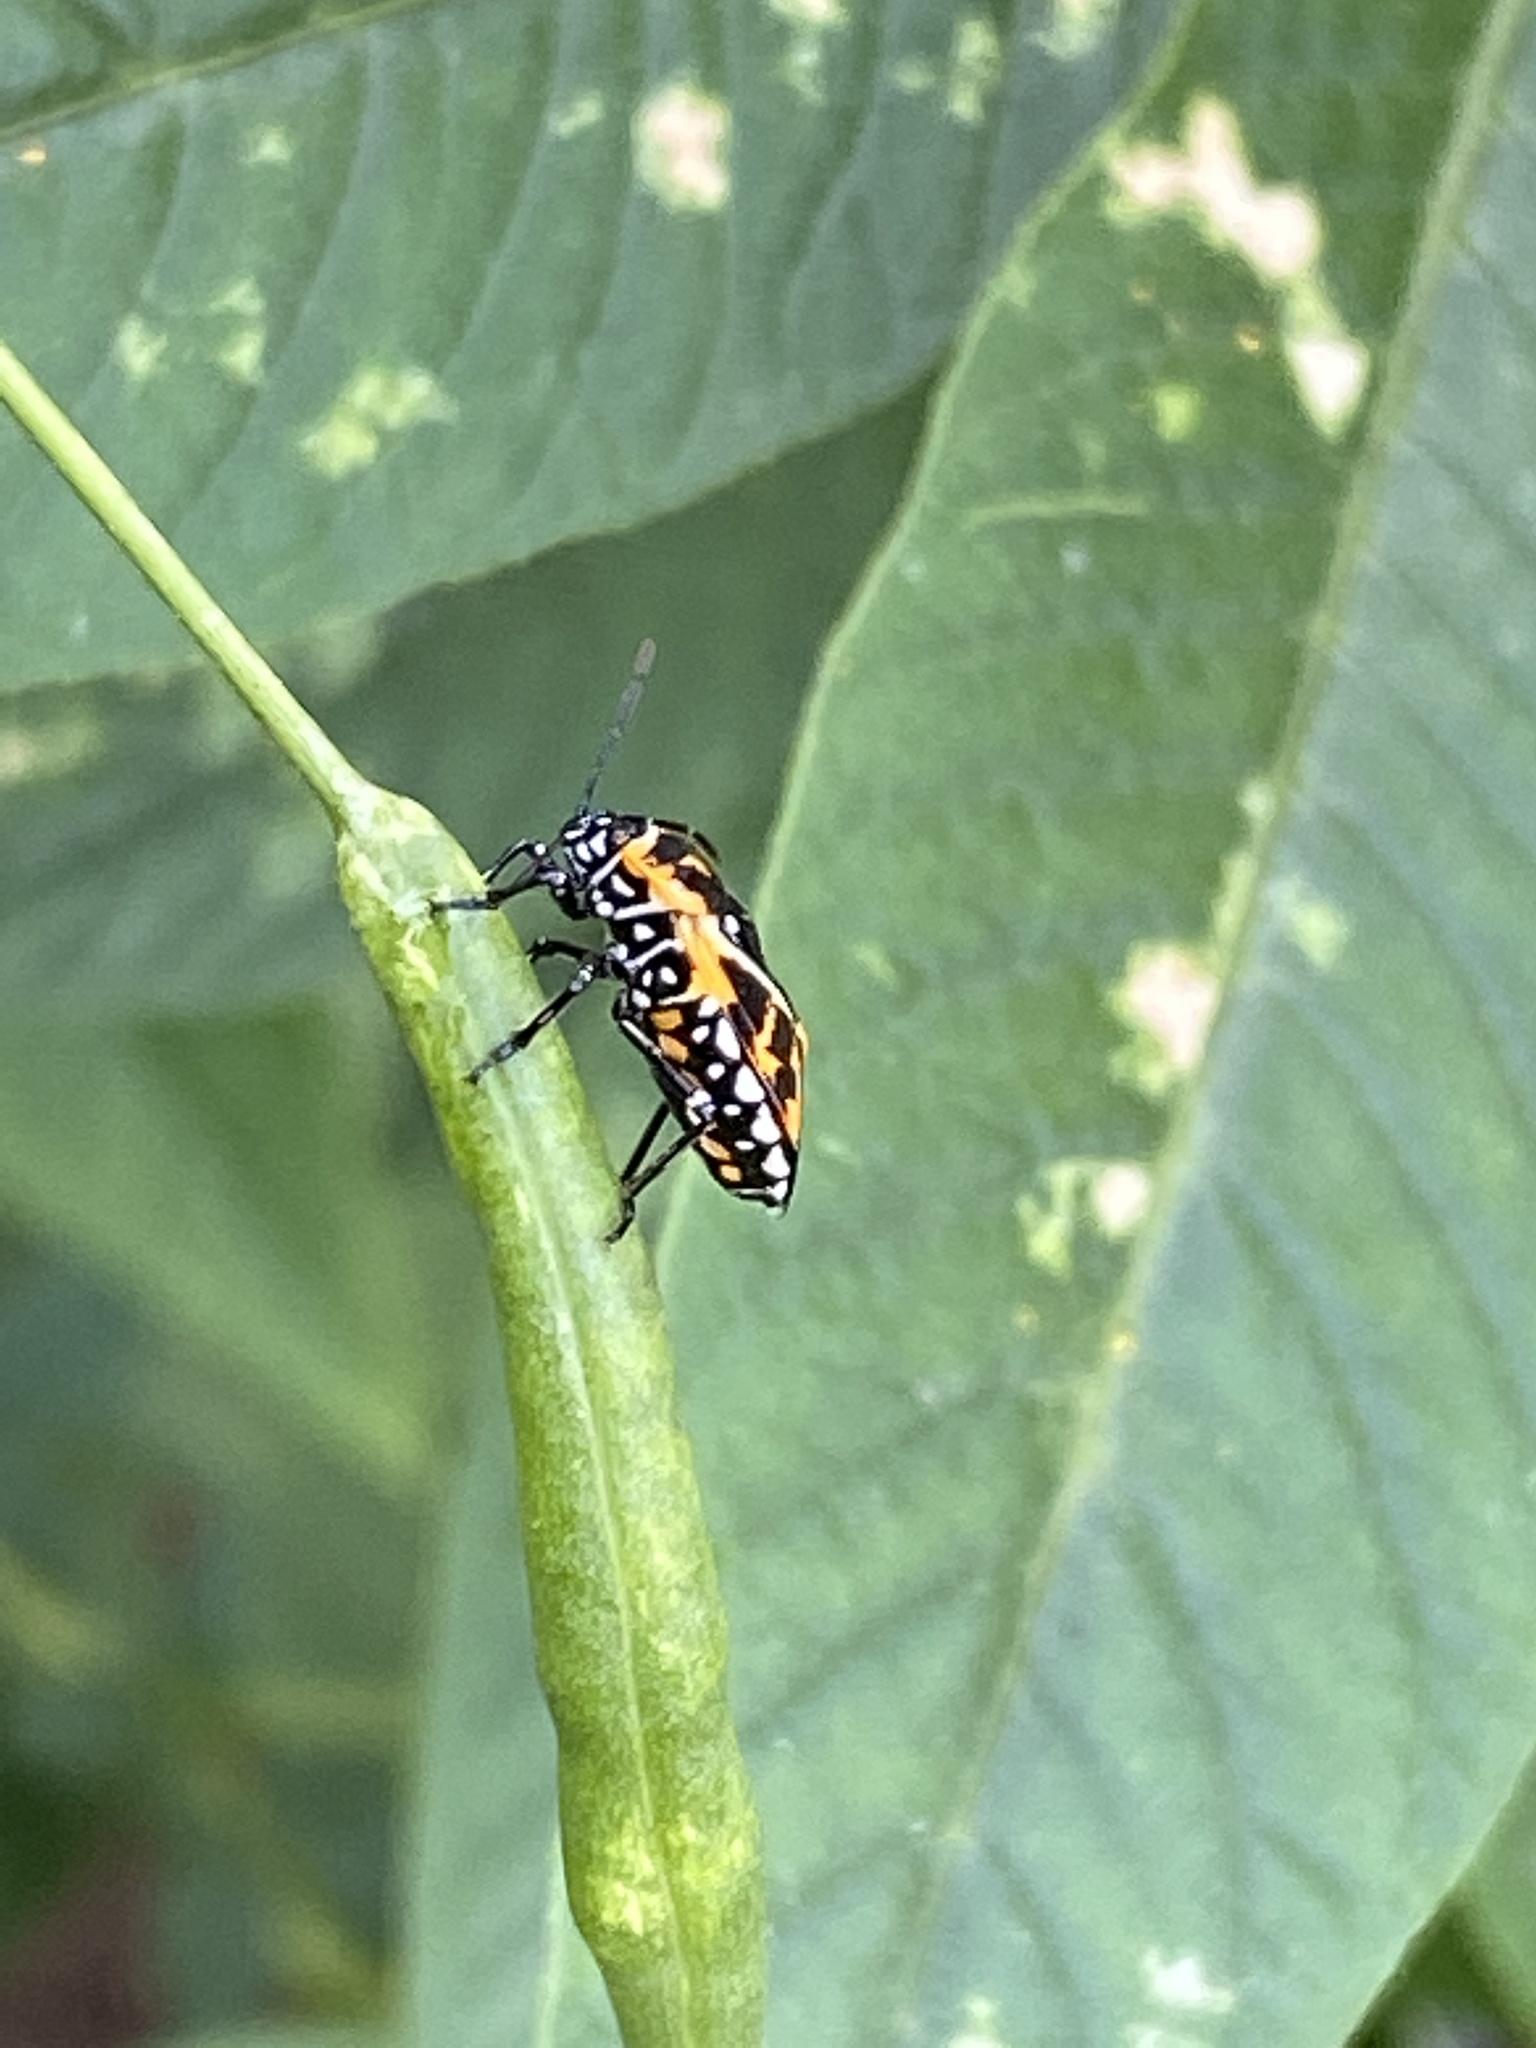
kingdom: Animalia
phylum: Arthropoda
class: Insecta
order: Hemiptera
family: Pentatomidae
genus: Murgantia
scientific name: Murgantia histrionica
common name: Harlequin bug
